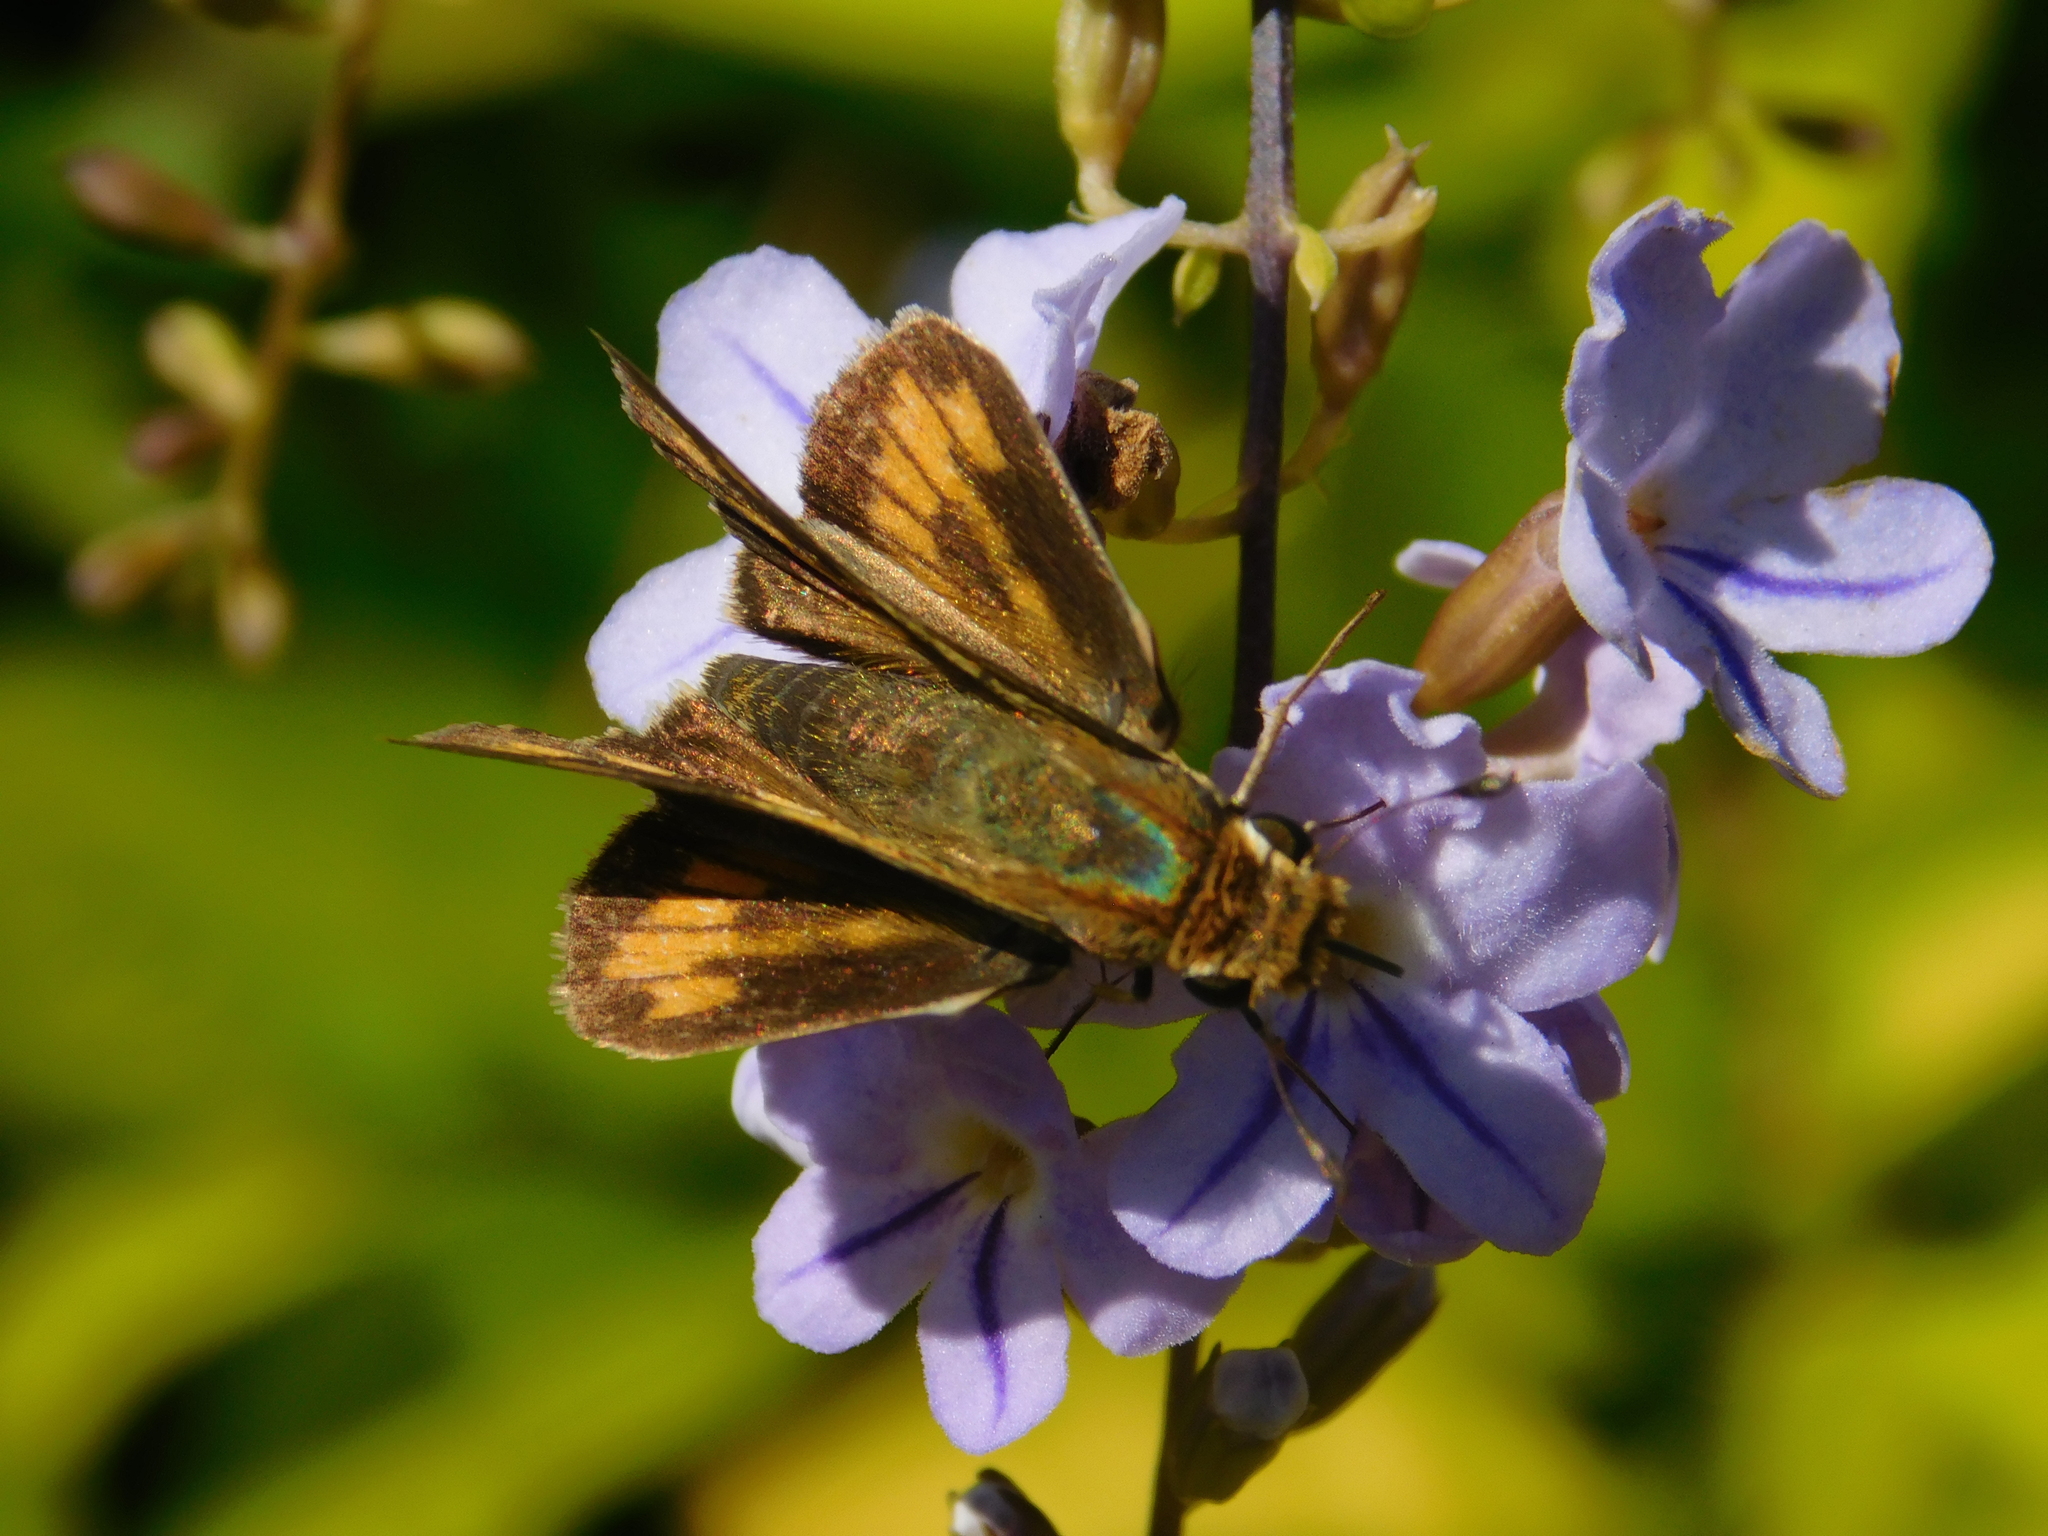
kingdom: Animalia
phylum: Arthropoda
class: Insecta
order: Lepidoptera
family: Hesperiidae
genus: Hylephila
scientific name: Hylephila phyleus
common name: Fiery skipper
